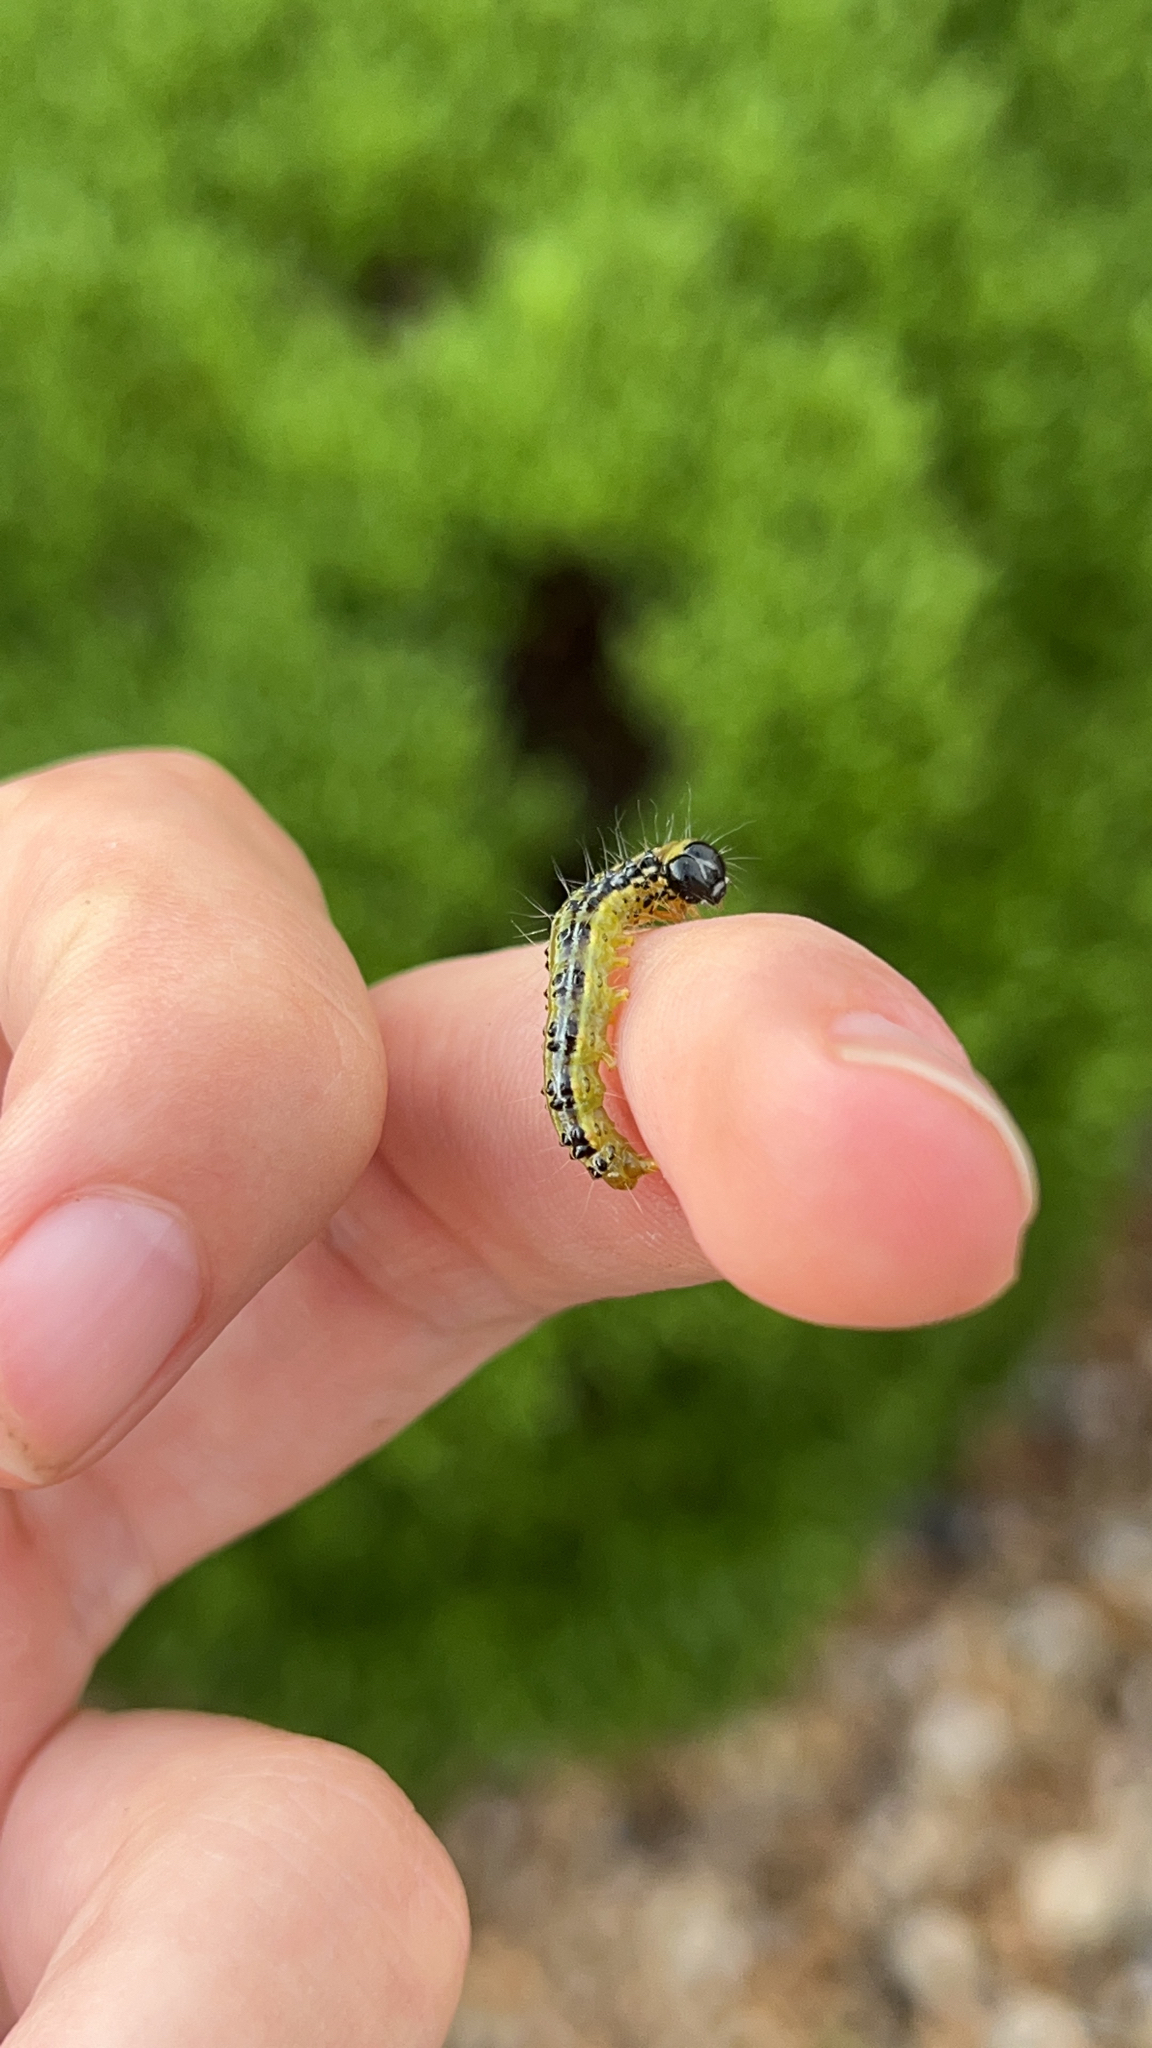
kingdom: Animalia
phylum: Arthropoda
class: Insecta
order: Lepidoptera
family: Crambidae
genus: Cydalima
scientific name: Cydalima perspectalis
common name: Box tree moth
